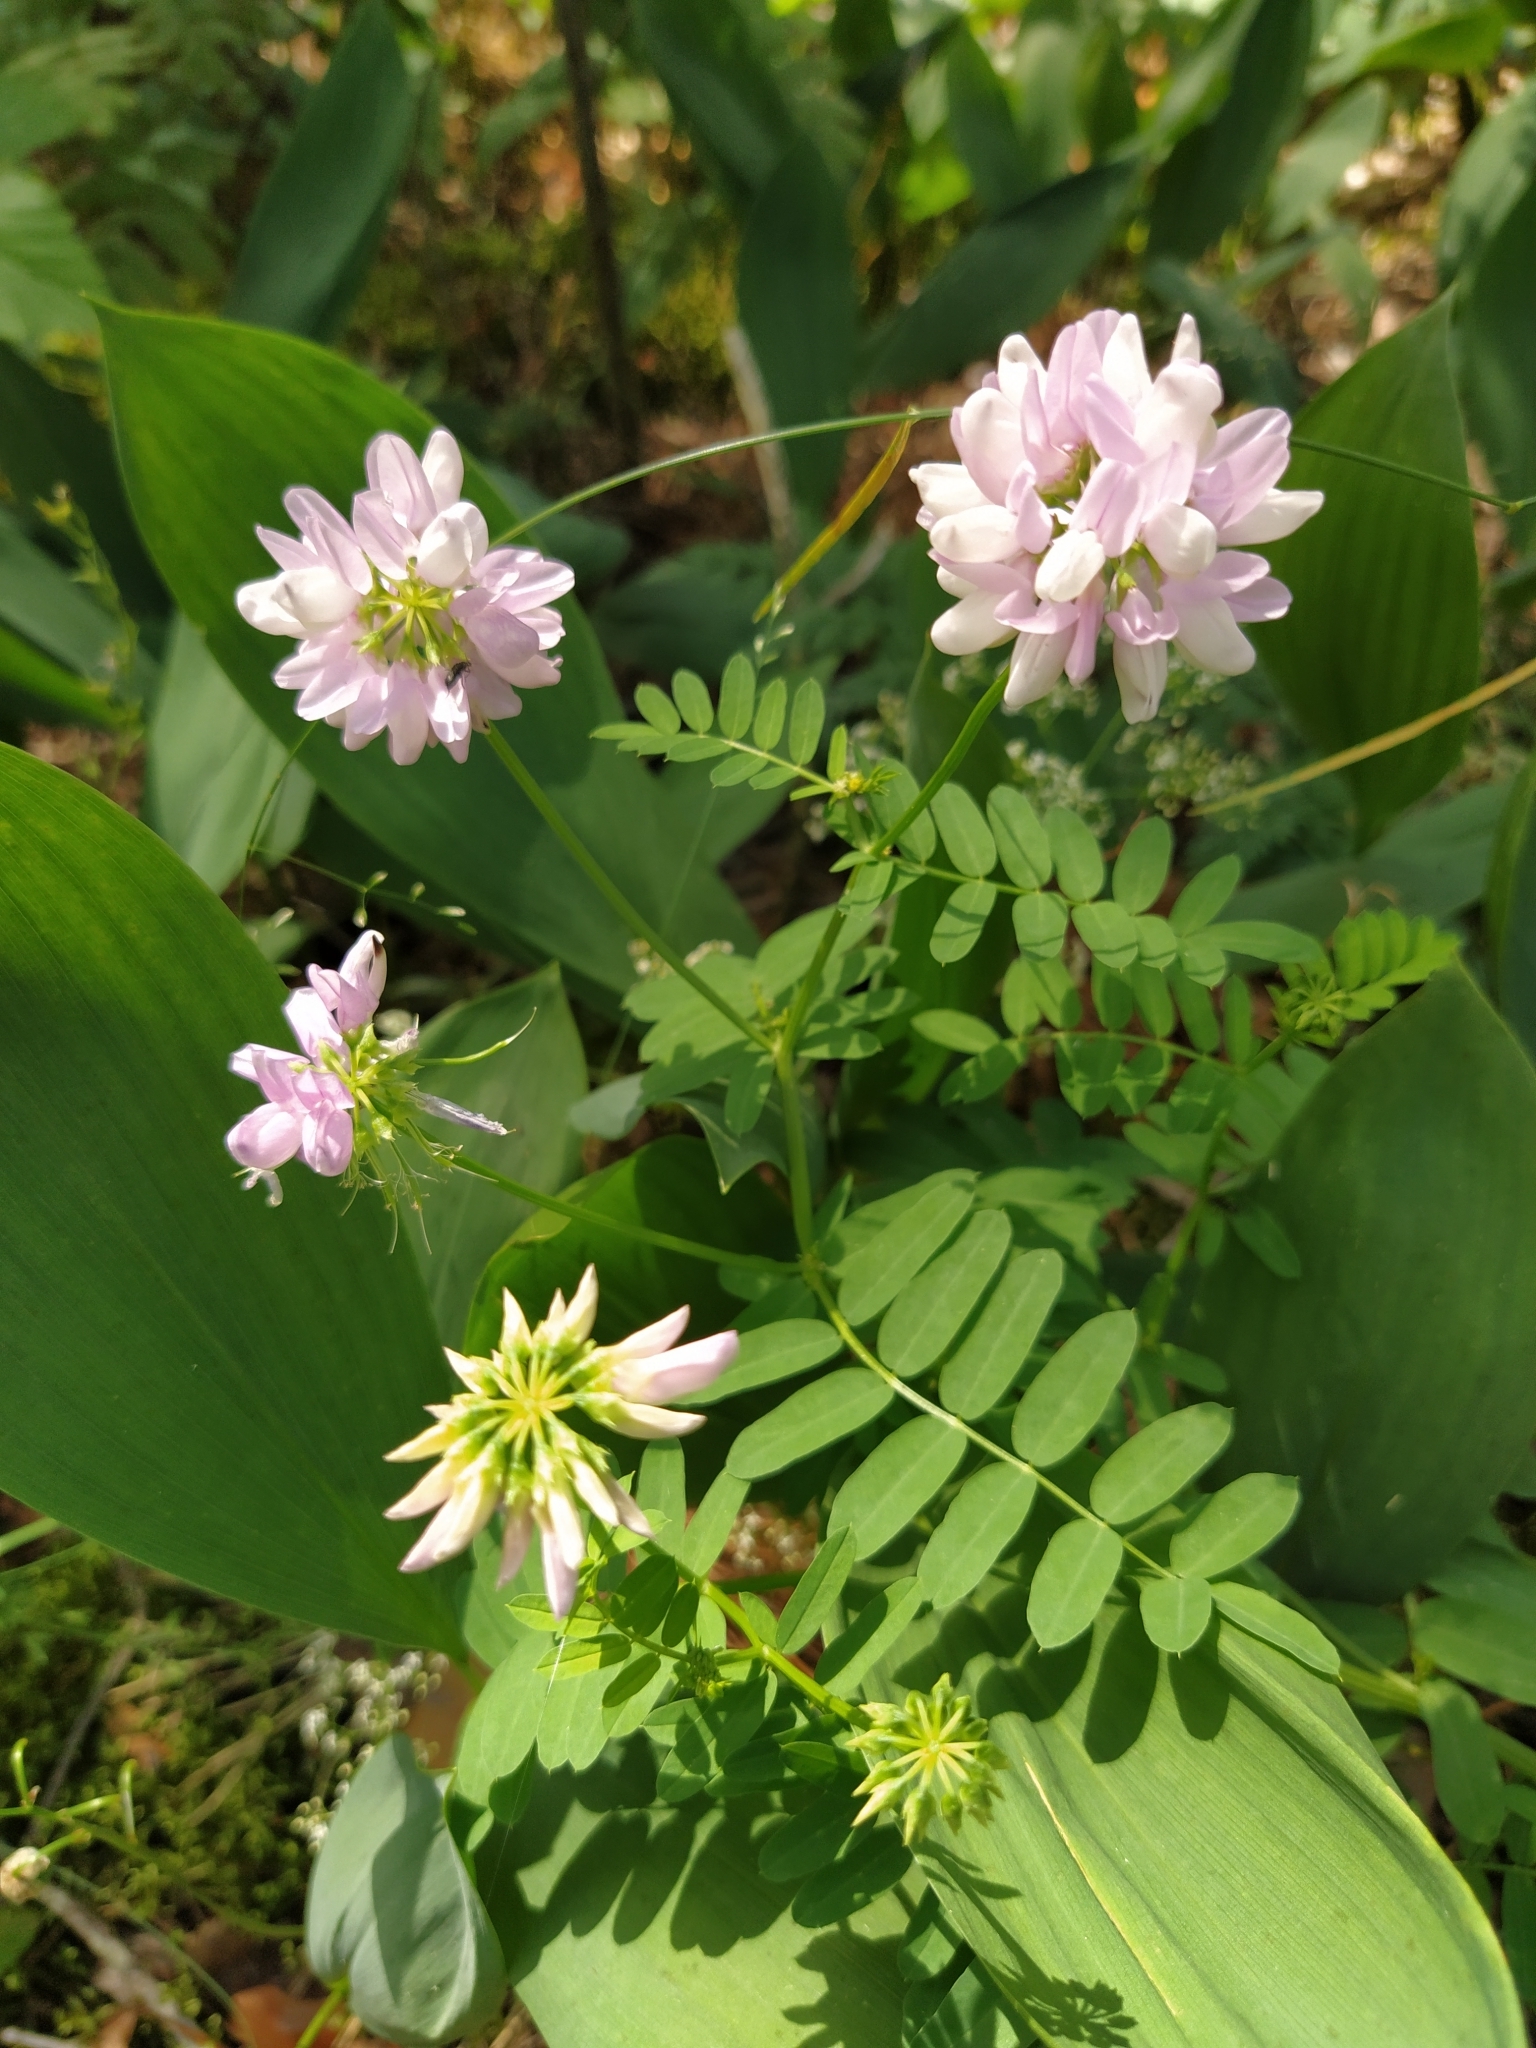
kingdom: Plantae
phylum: Tracheophyta
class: Magnoliopsida
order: Fabales
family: Fabaceae
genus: Coronilla
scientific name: Coronilla varia
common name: Crownvetch
